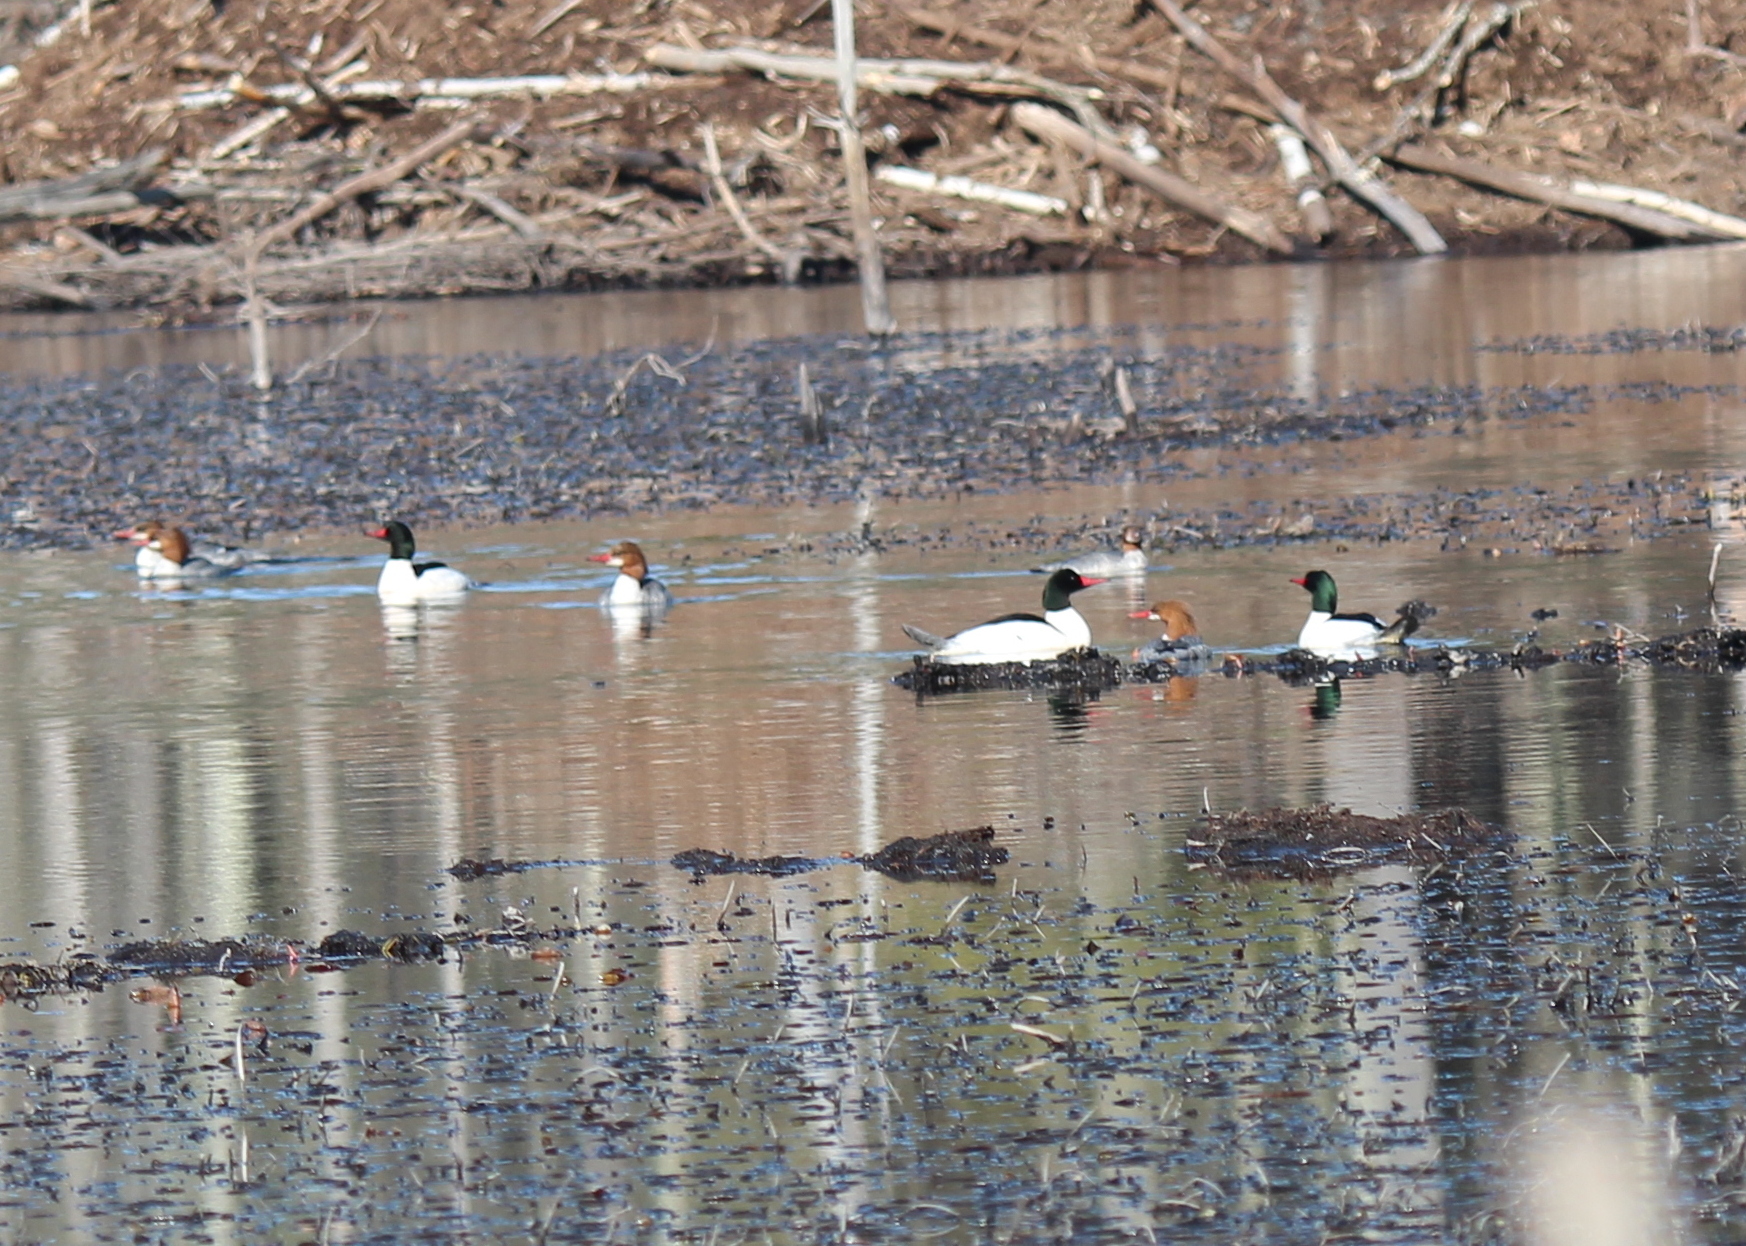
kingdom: Animalia
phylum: Chordata
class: Aves
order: Anseriformes
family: Anatidae
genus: Mergus
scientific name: Mergus merganser
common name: Common merganser
